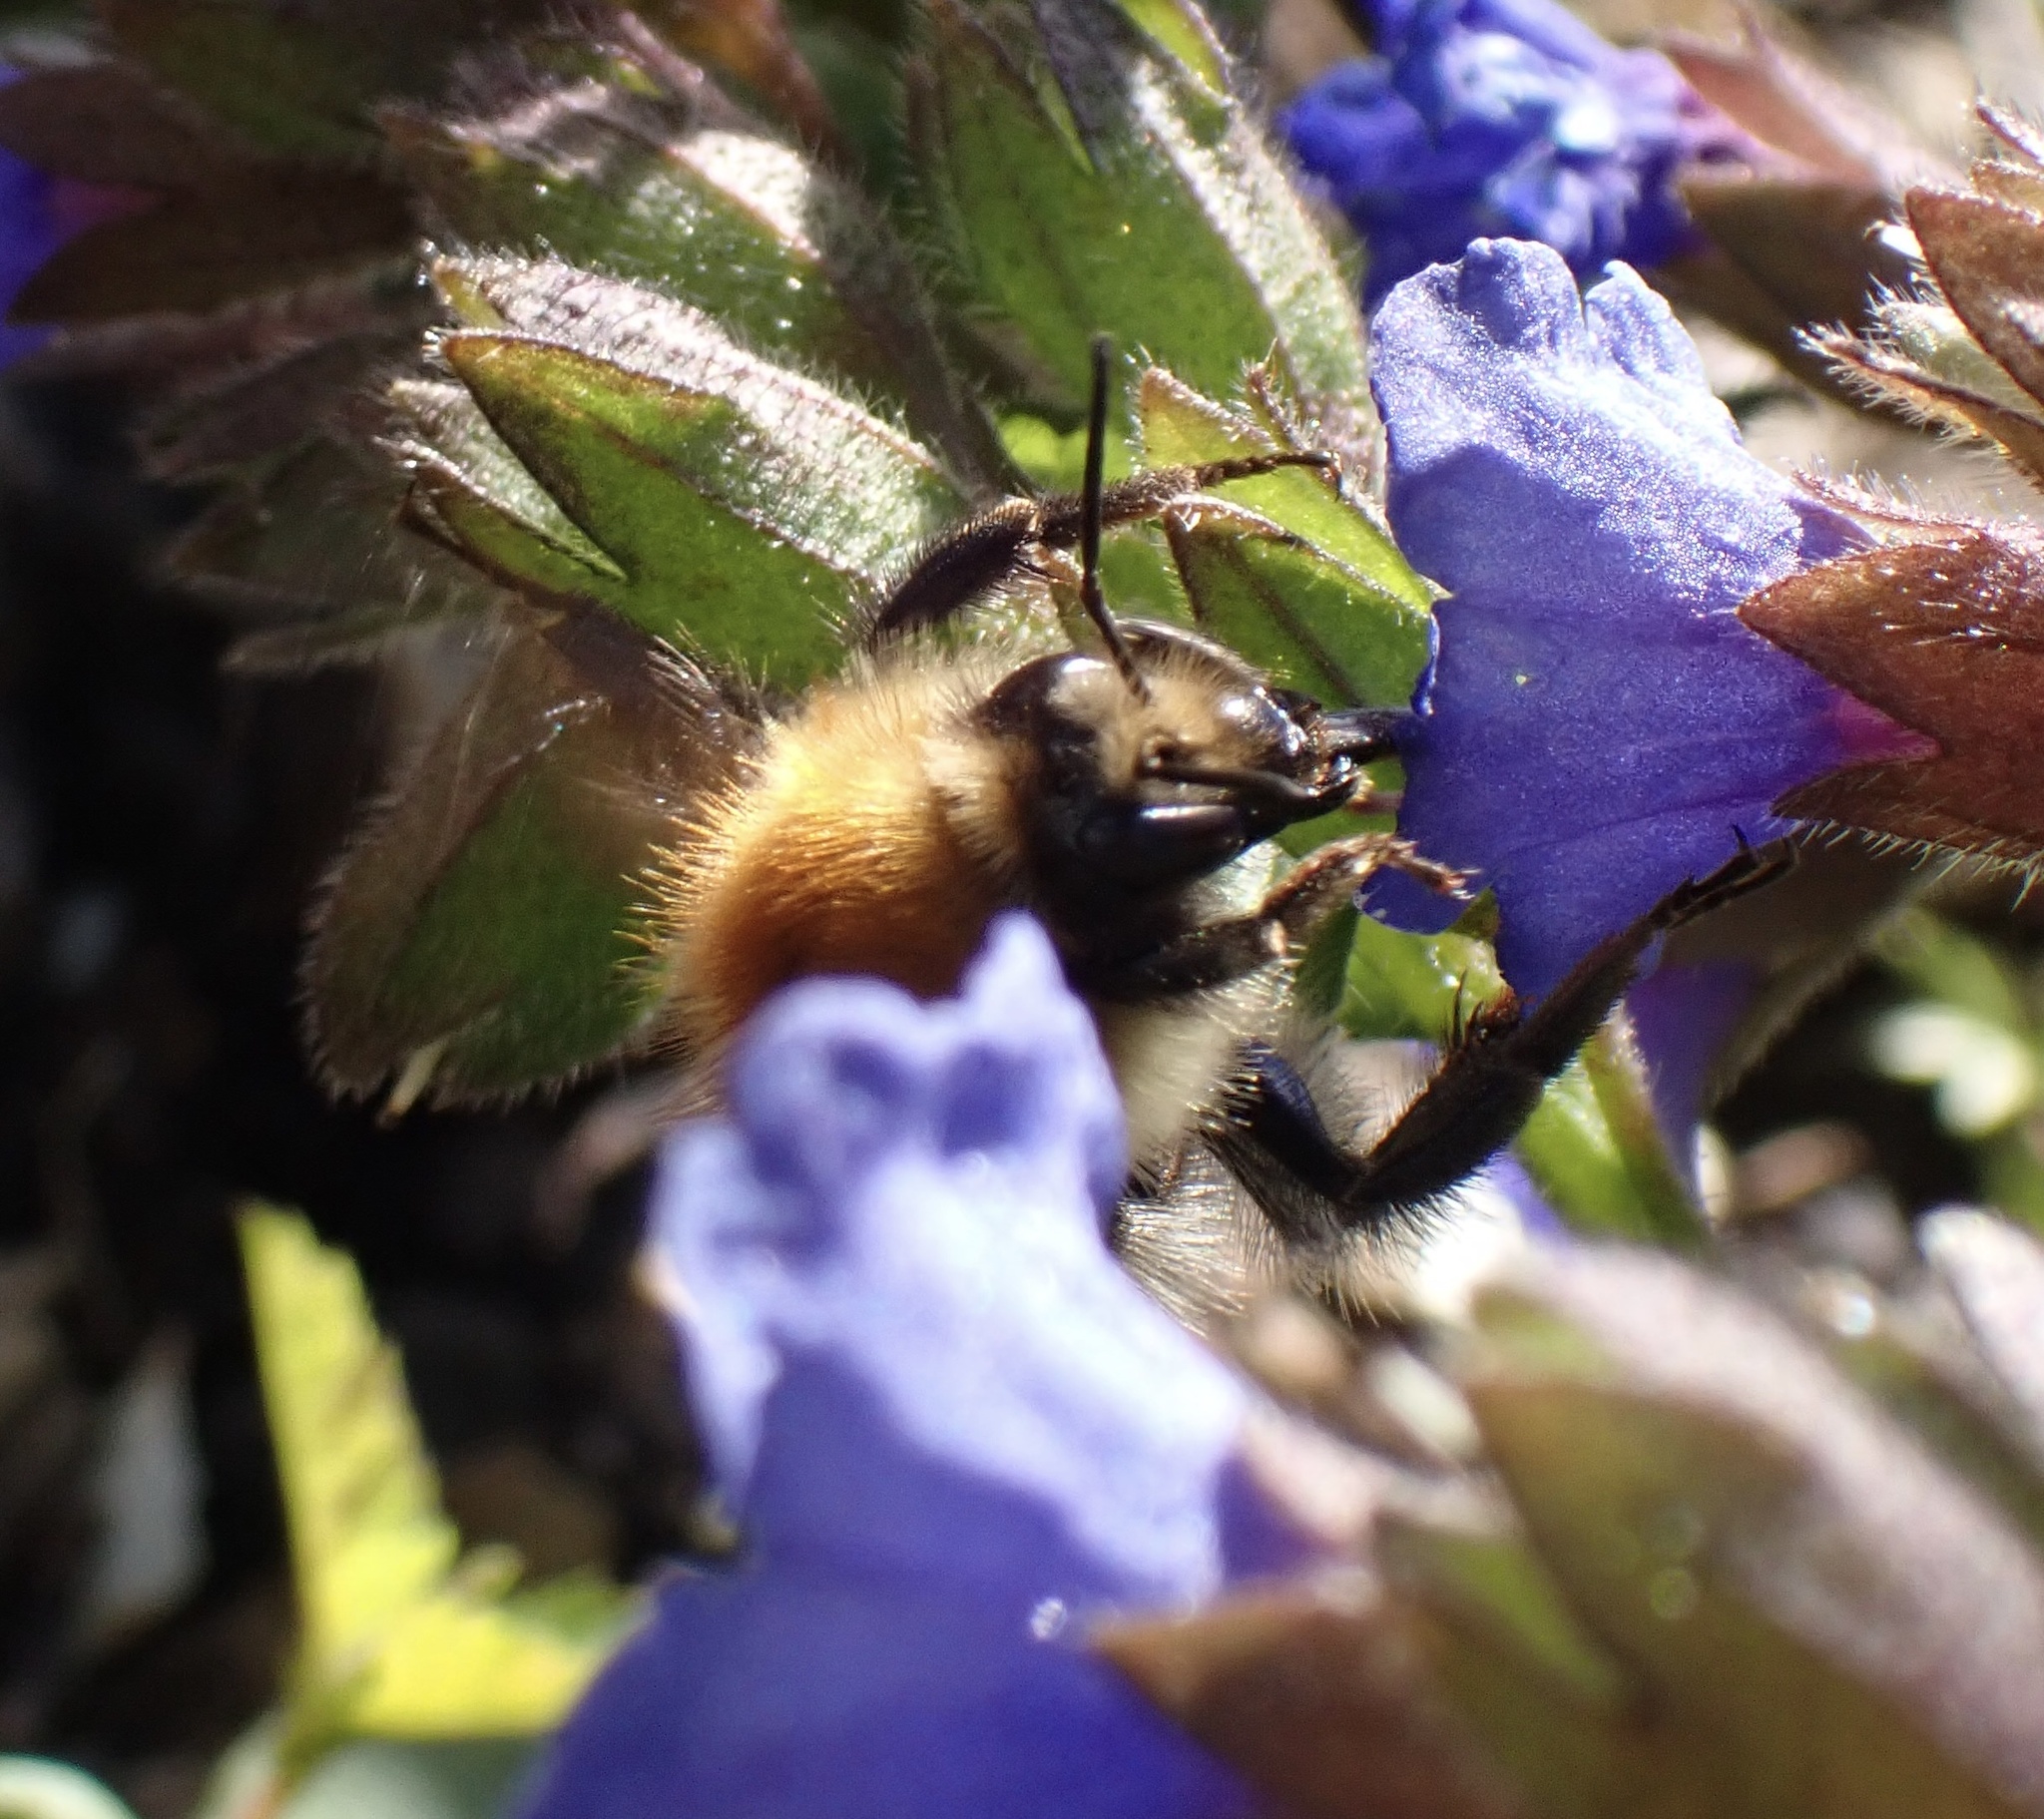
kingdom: Animalia
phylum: Arthropoda
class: Insecta
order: Hymenoptera
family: Apidae
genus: Bombus
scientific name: Bombus pascuorum
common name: Common carder bee
